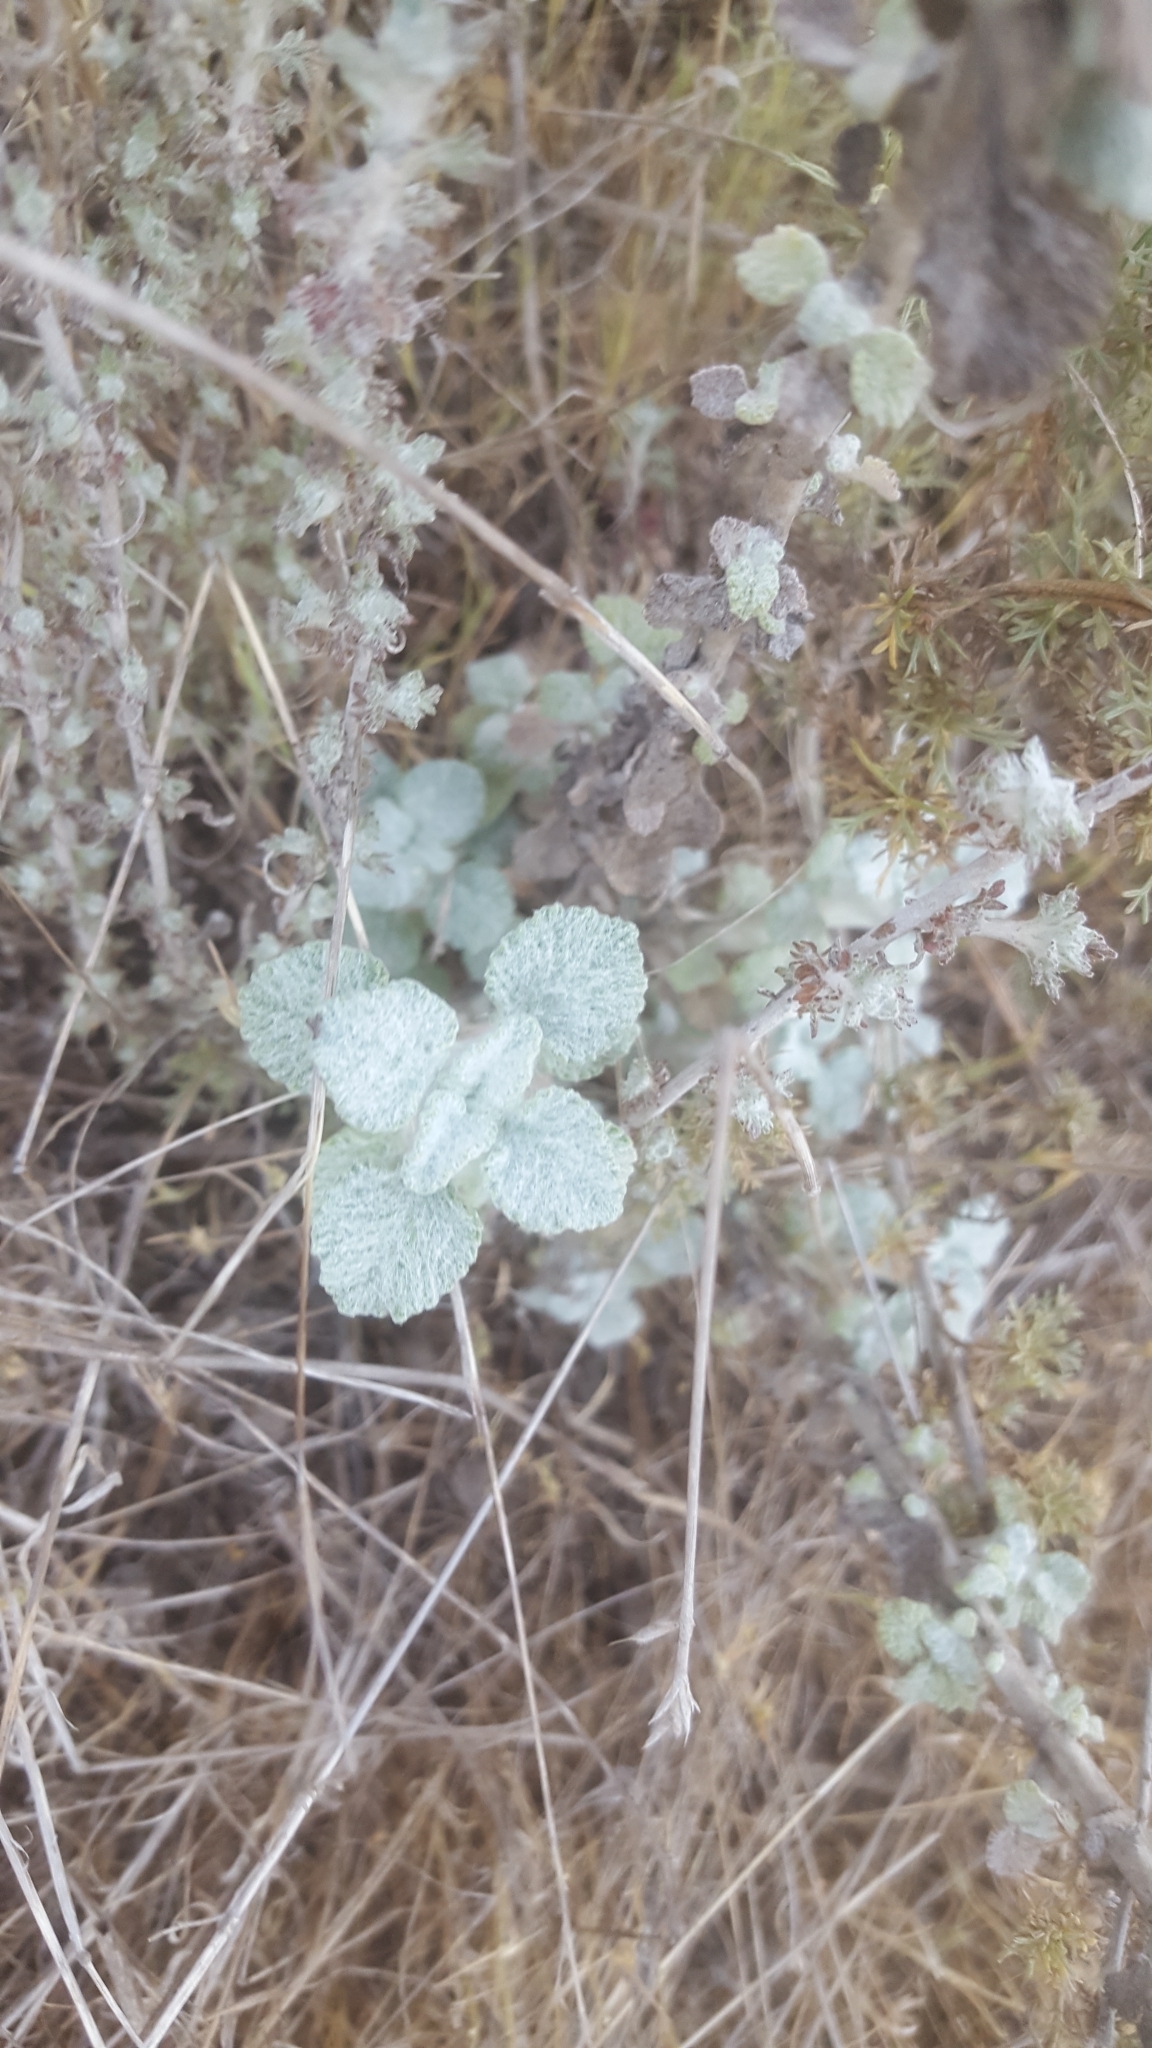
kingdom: Plantae
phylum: Tracheophyta
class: Magnoliopsida
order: Lamiales
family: Lamiaceae
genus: Marrubium
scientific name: Marrubium vulgare
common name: Horehound
